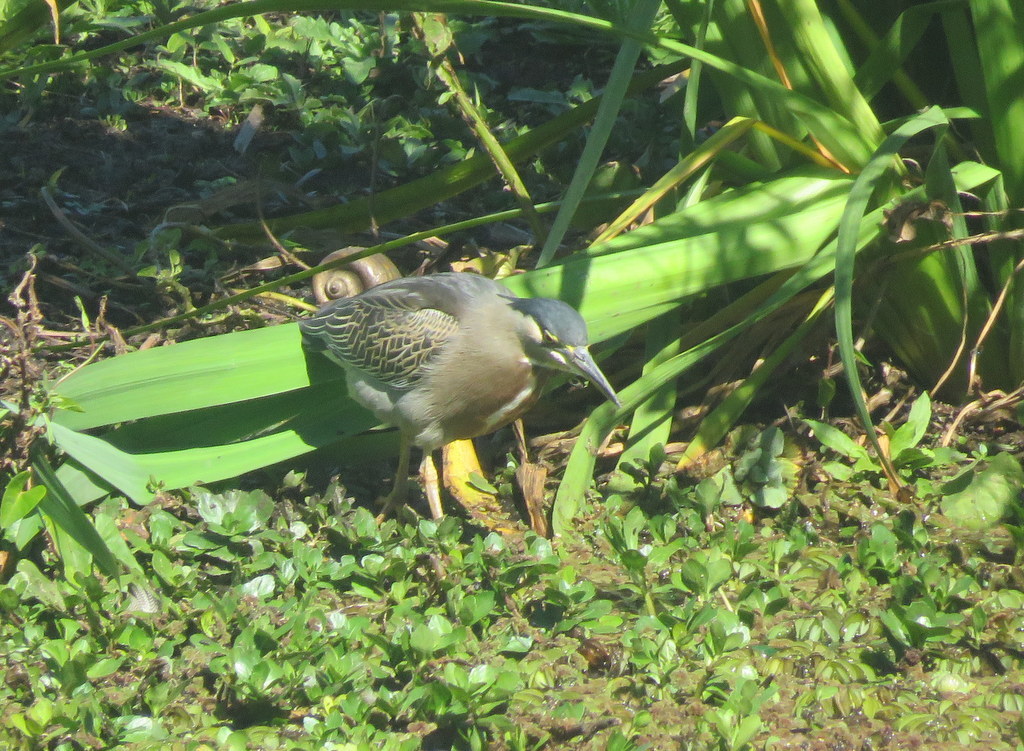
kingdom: Animalia
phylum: Chordata
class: Aves
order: Pelecaniformes
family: Ardeidae
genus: Butorides
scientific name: Butorides striata
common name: Striated heron
